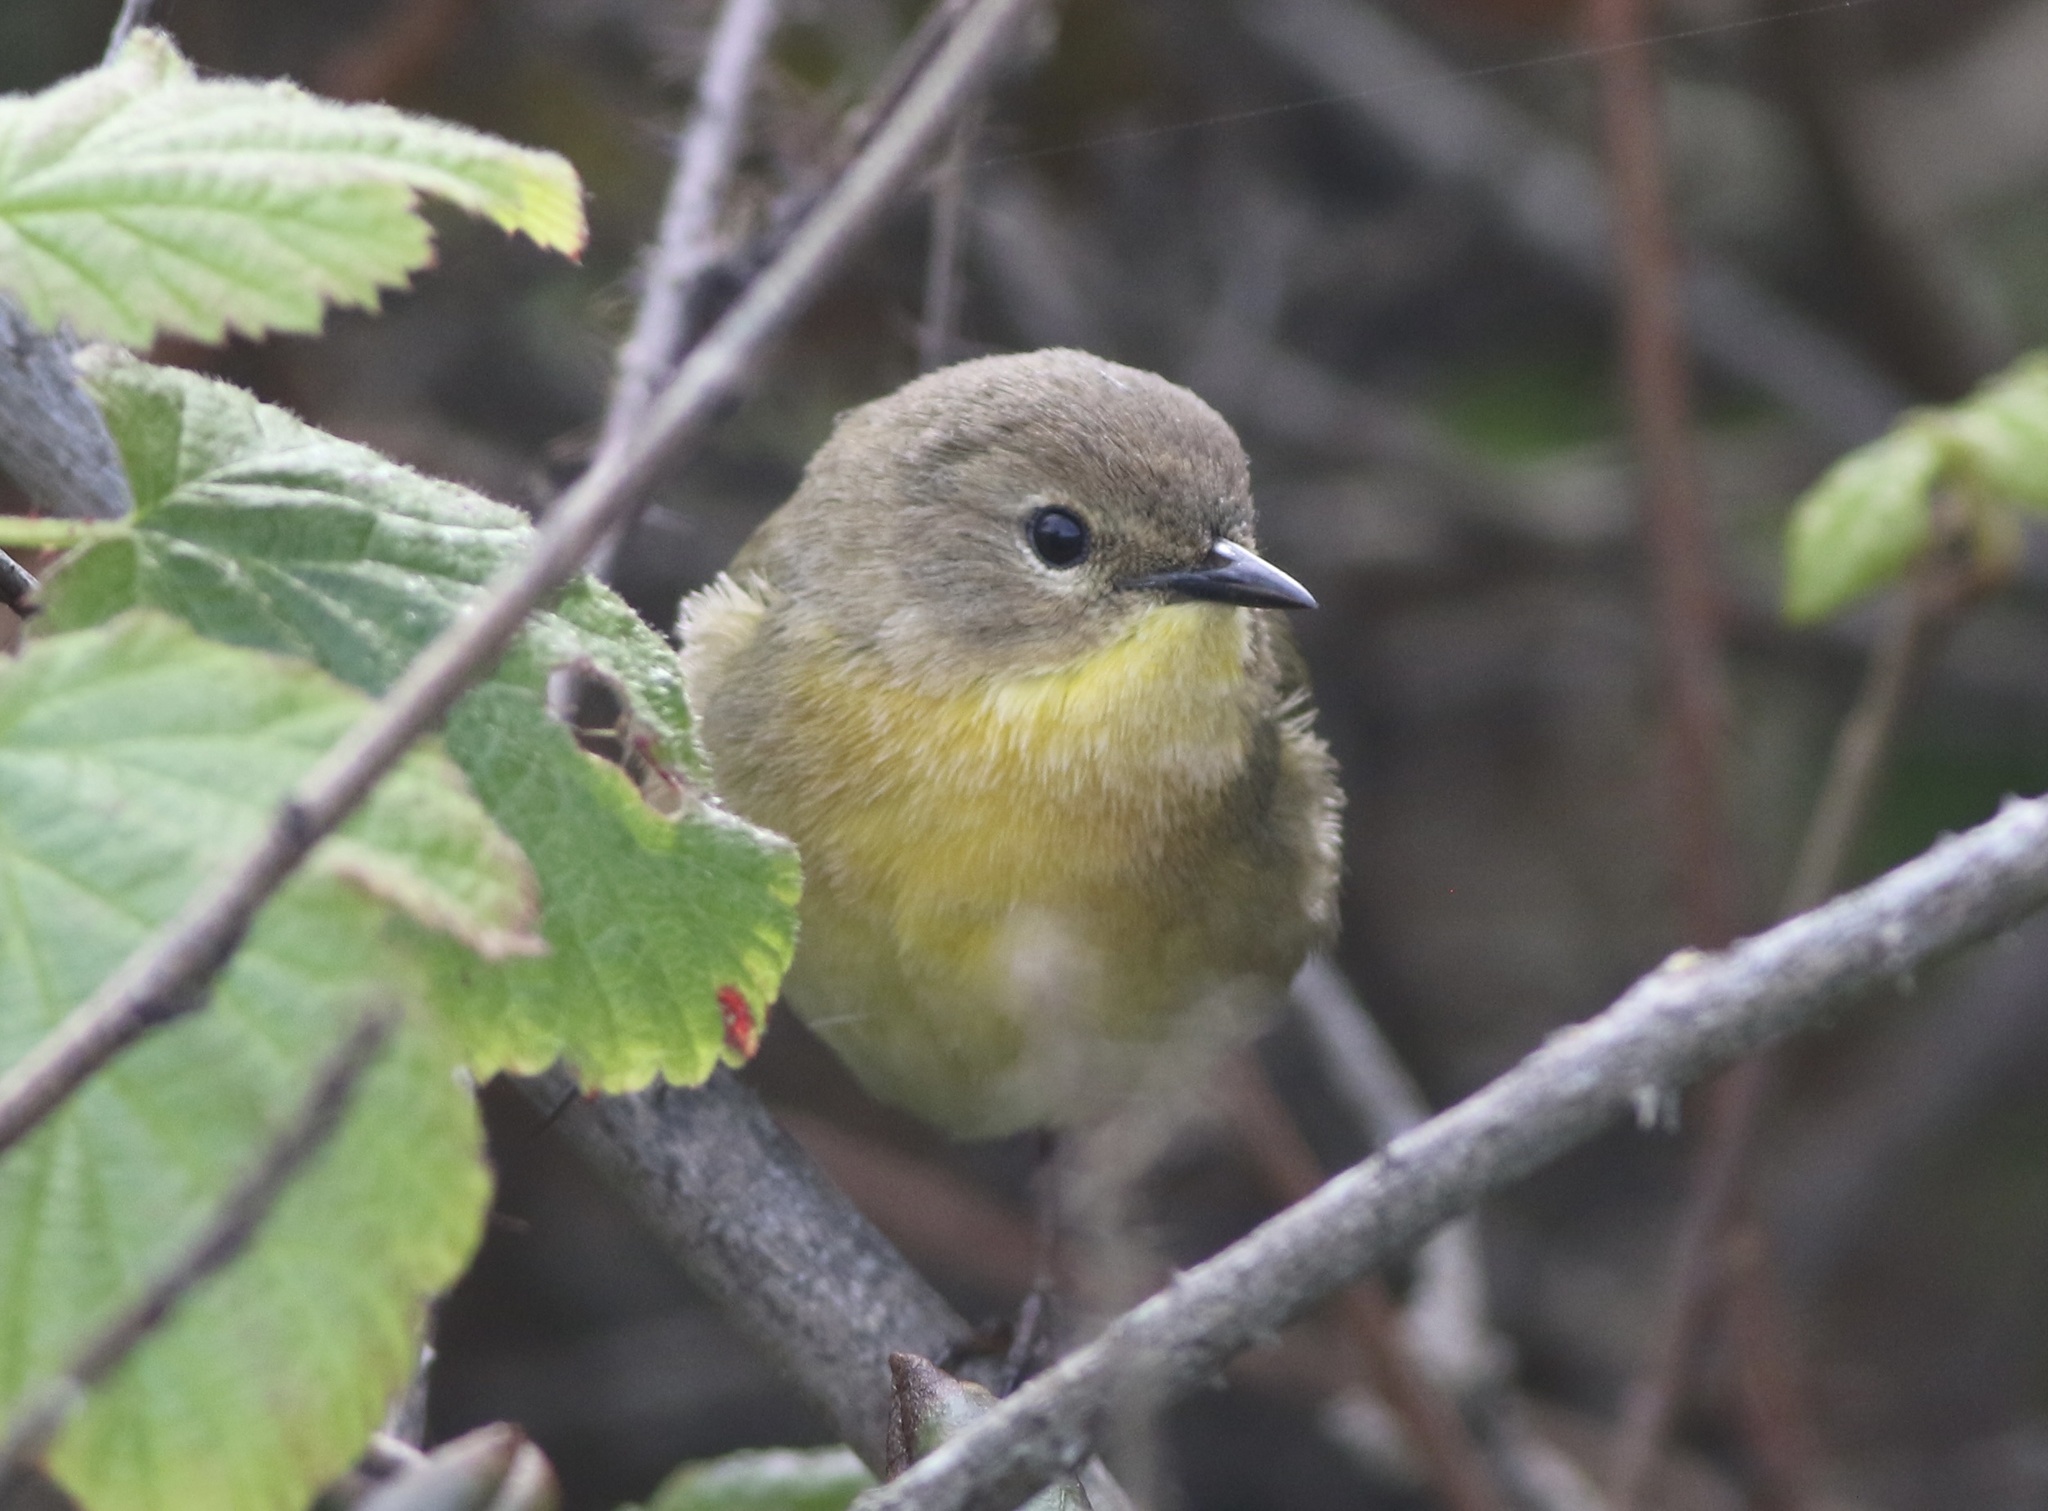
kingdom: Animalia
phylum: Chordata
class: Aves
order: Passeriformes
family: Parulidae
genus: Geothlypis
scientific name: Geothlypis trichas
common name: Common yellowthroat
